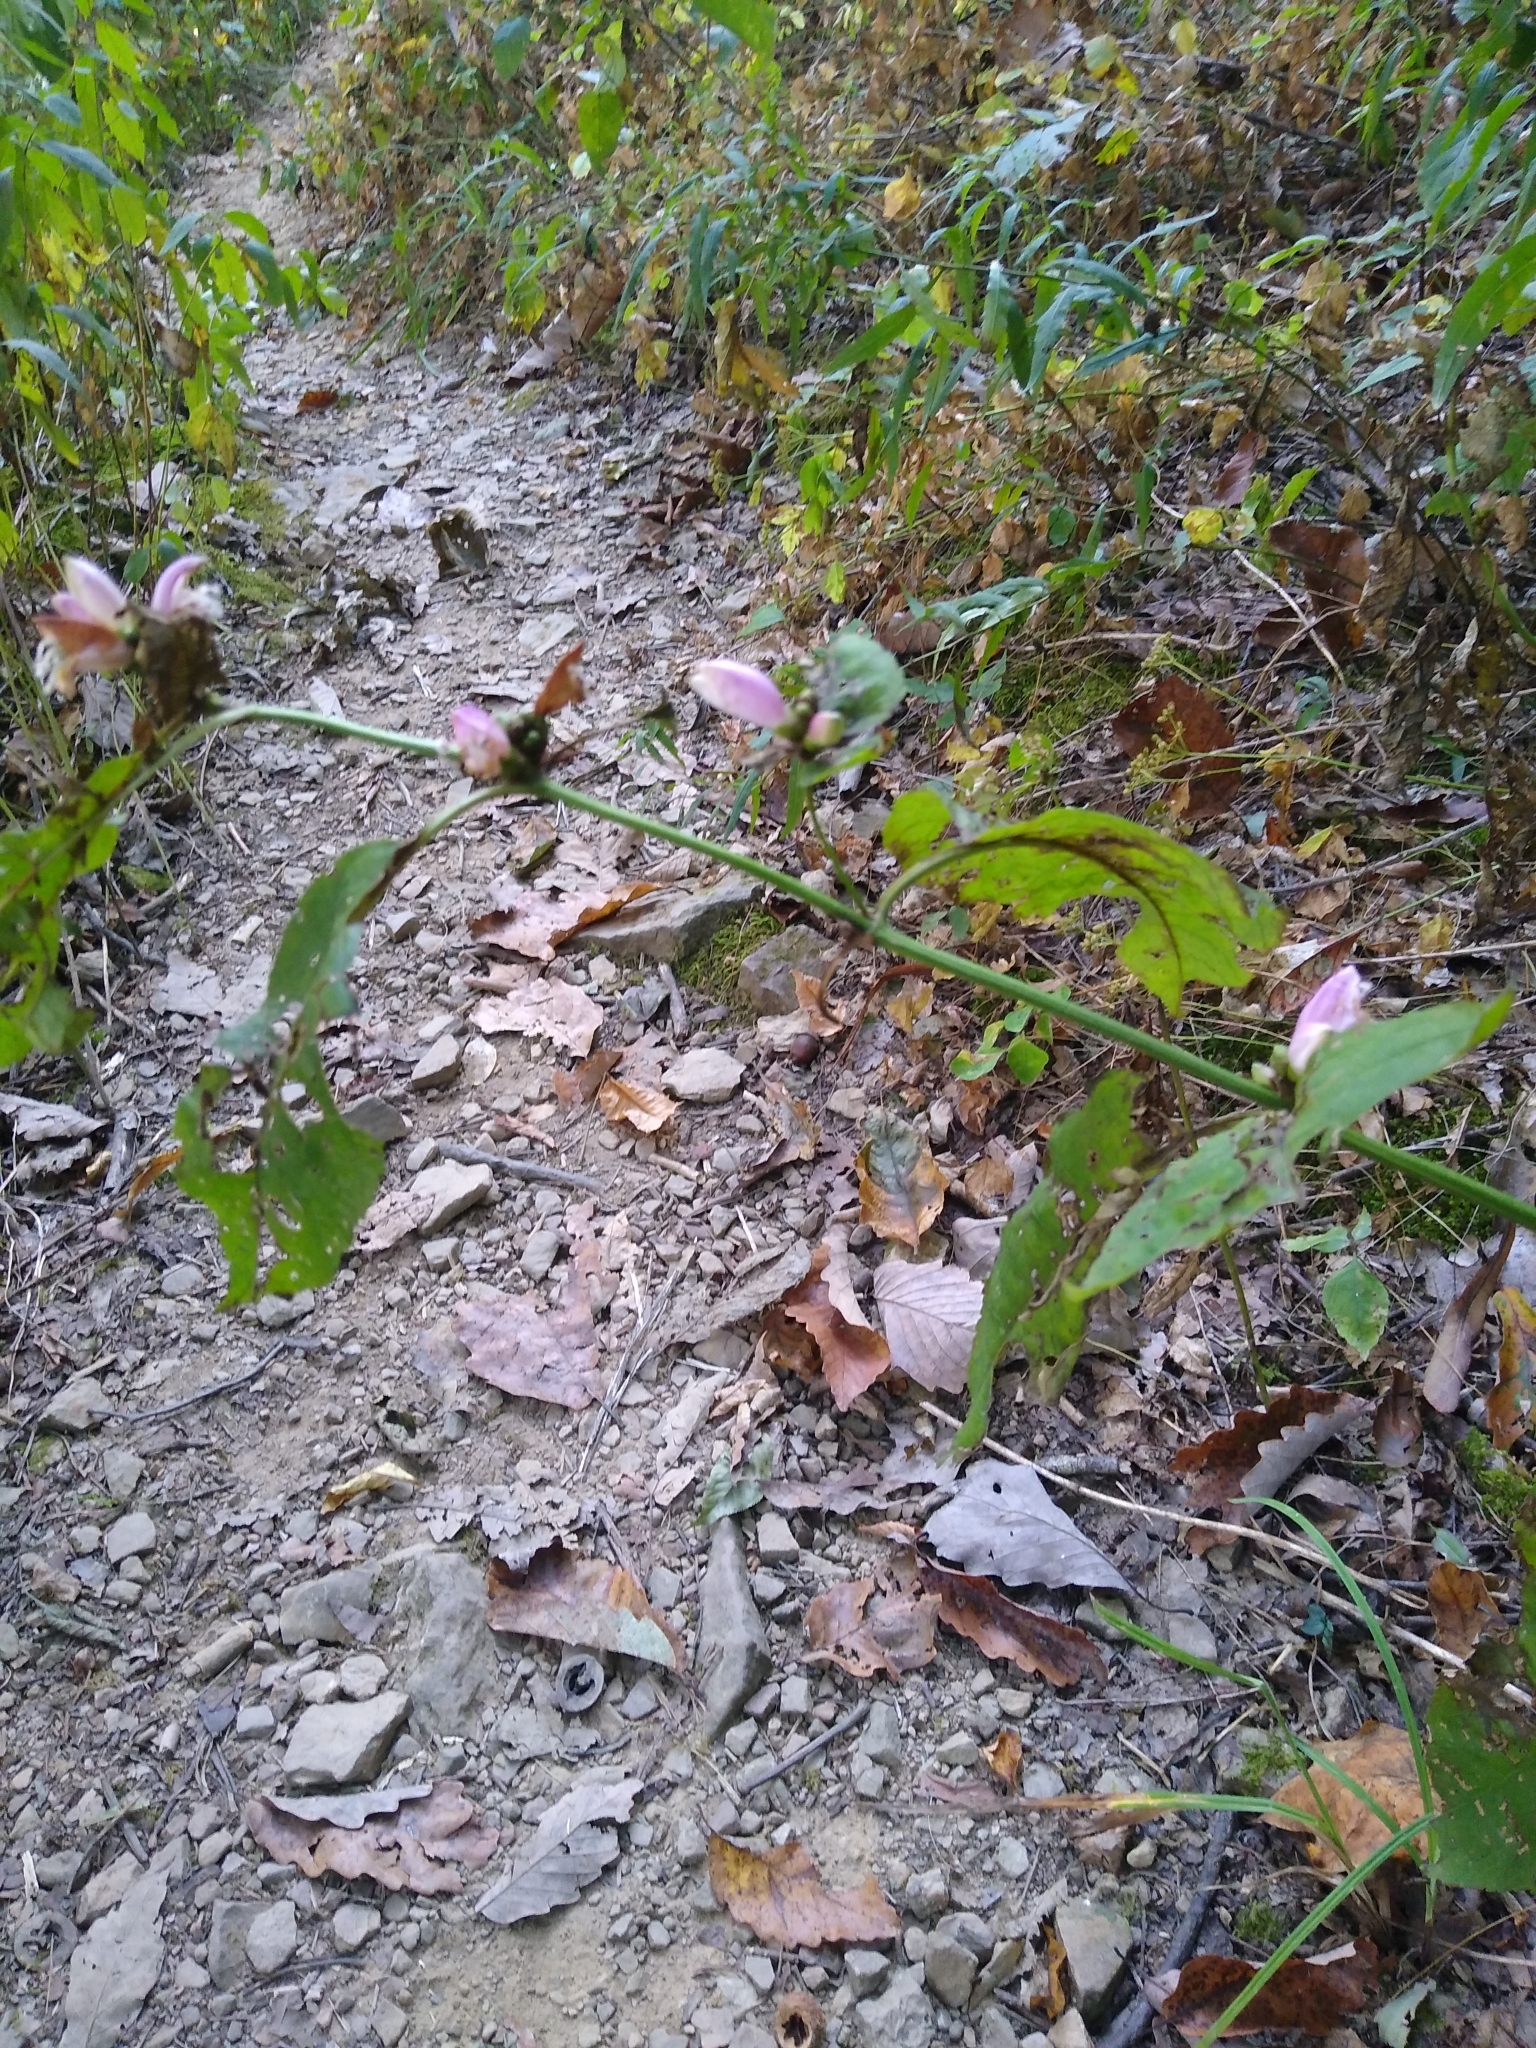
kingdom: Plantae
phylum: Tracheophyta
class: Magnoliopsida
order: Lamiales
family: Plantaginaceae
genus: Chelone
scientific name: Chelone lyonii
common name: Pink turtlehead
